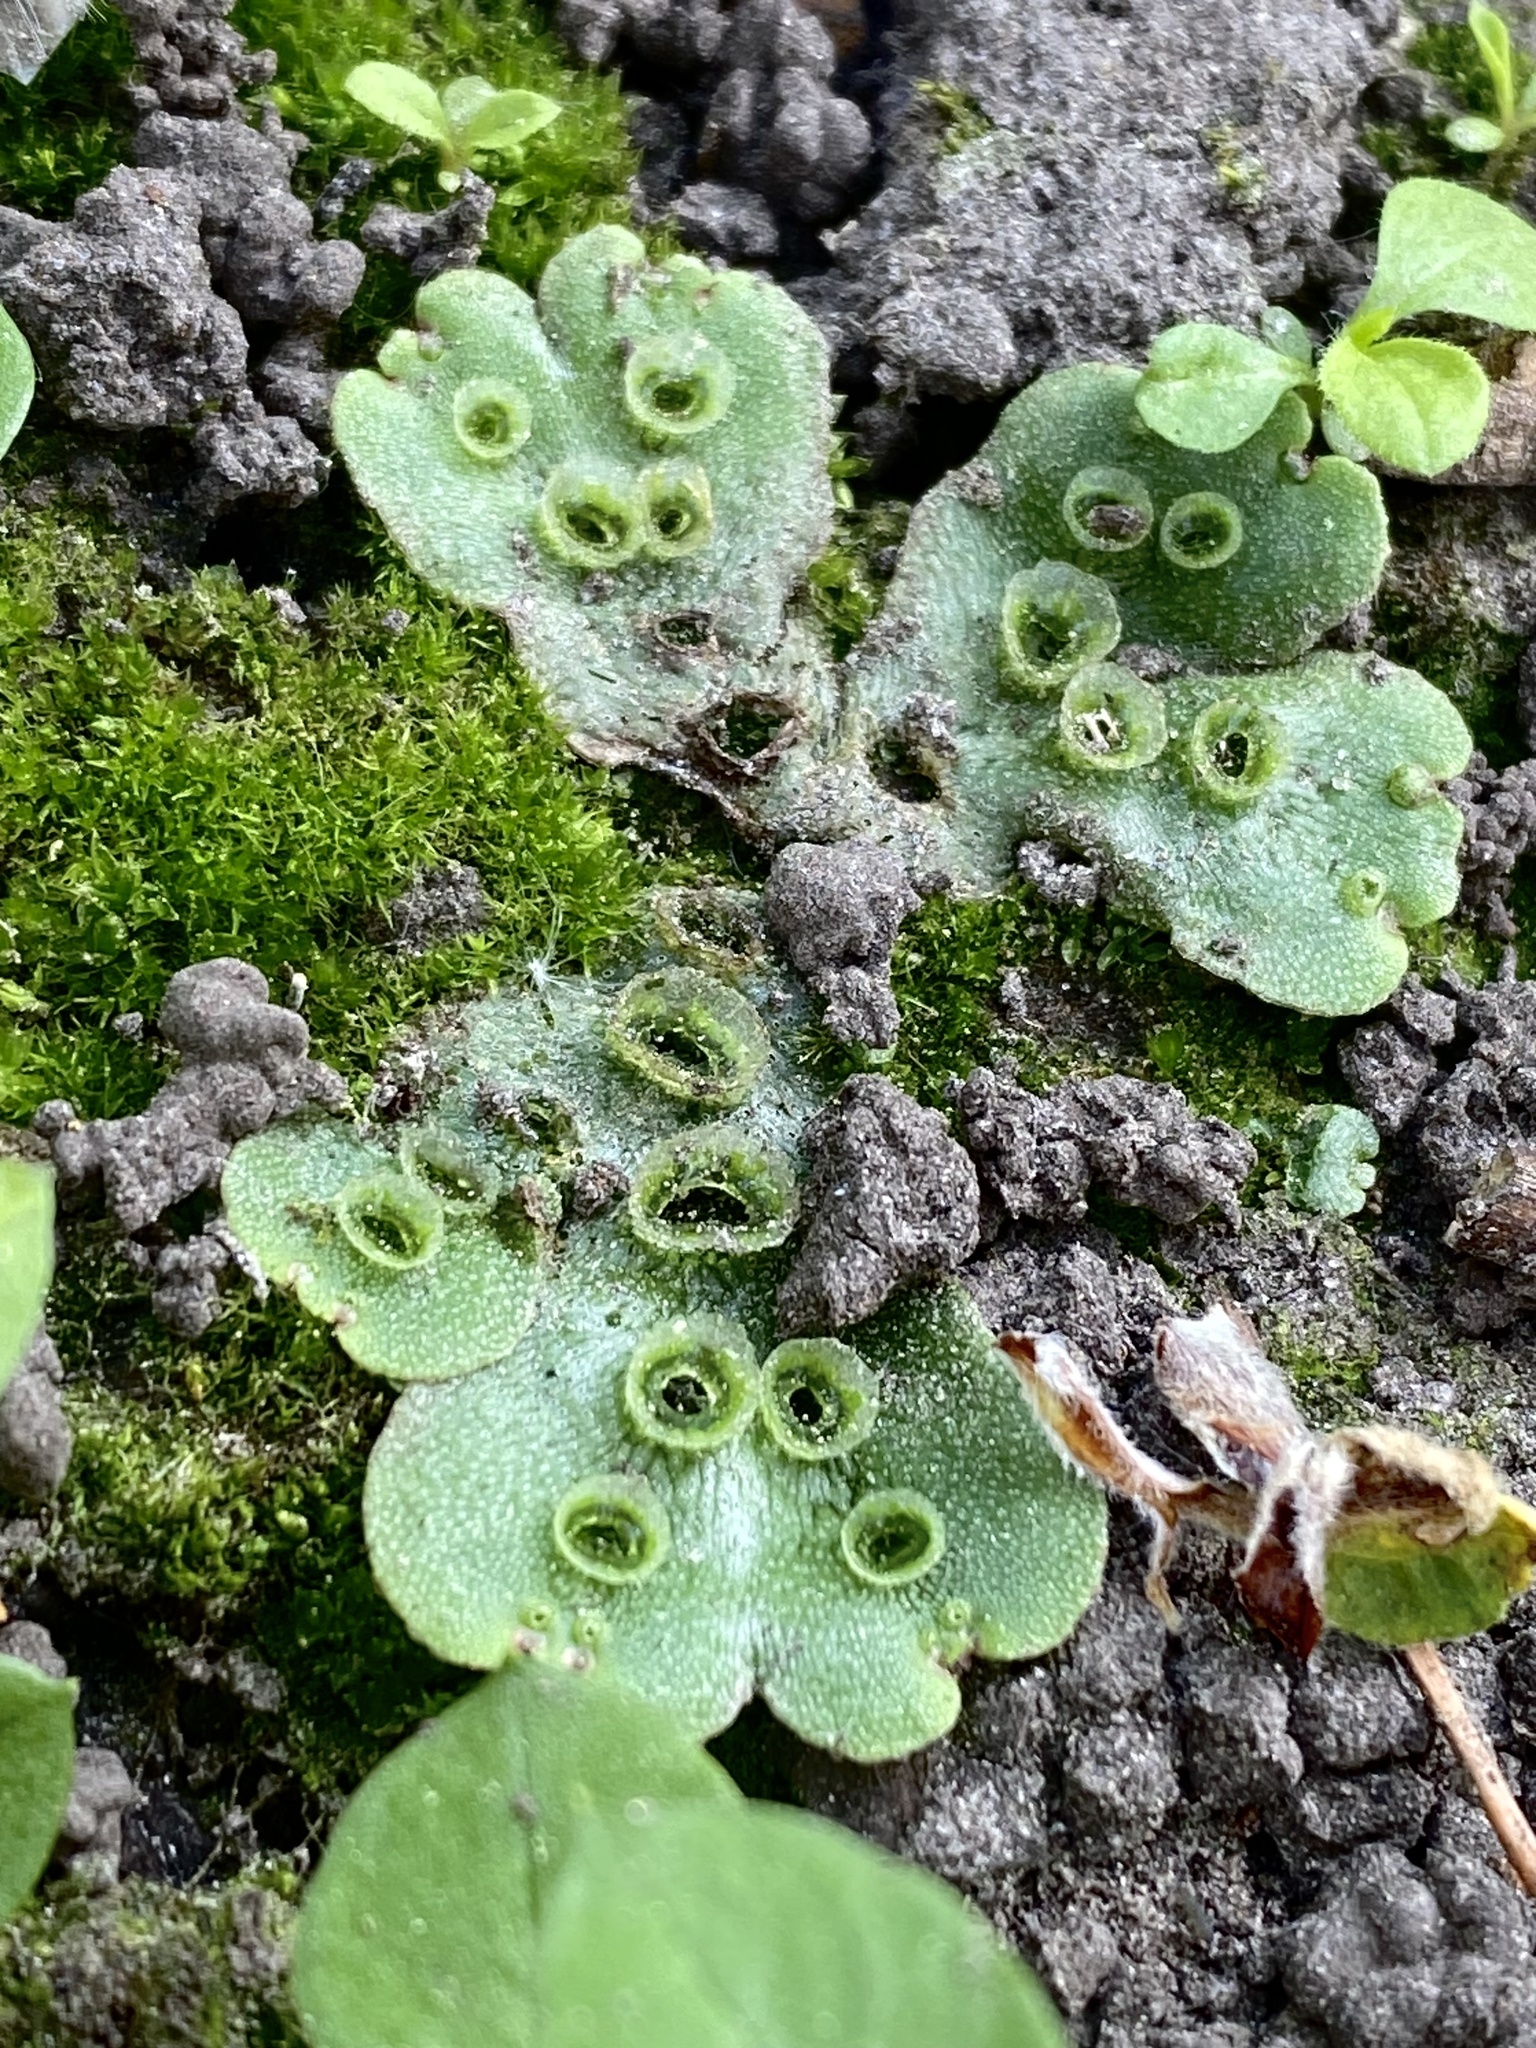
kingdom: Plantae
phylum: Marchantiophyta
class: Marchantiopsida
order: Marchantiales
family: Marchantiaceae
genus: Marchantia
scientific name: Marchantia polymorpha
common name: Common liverwort
